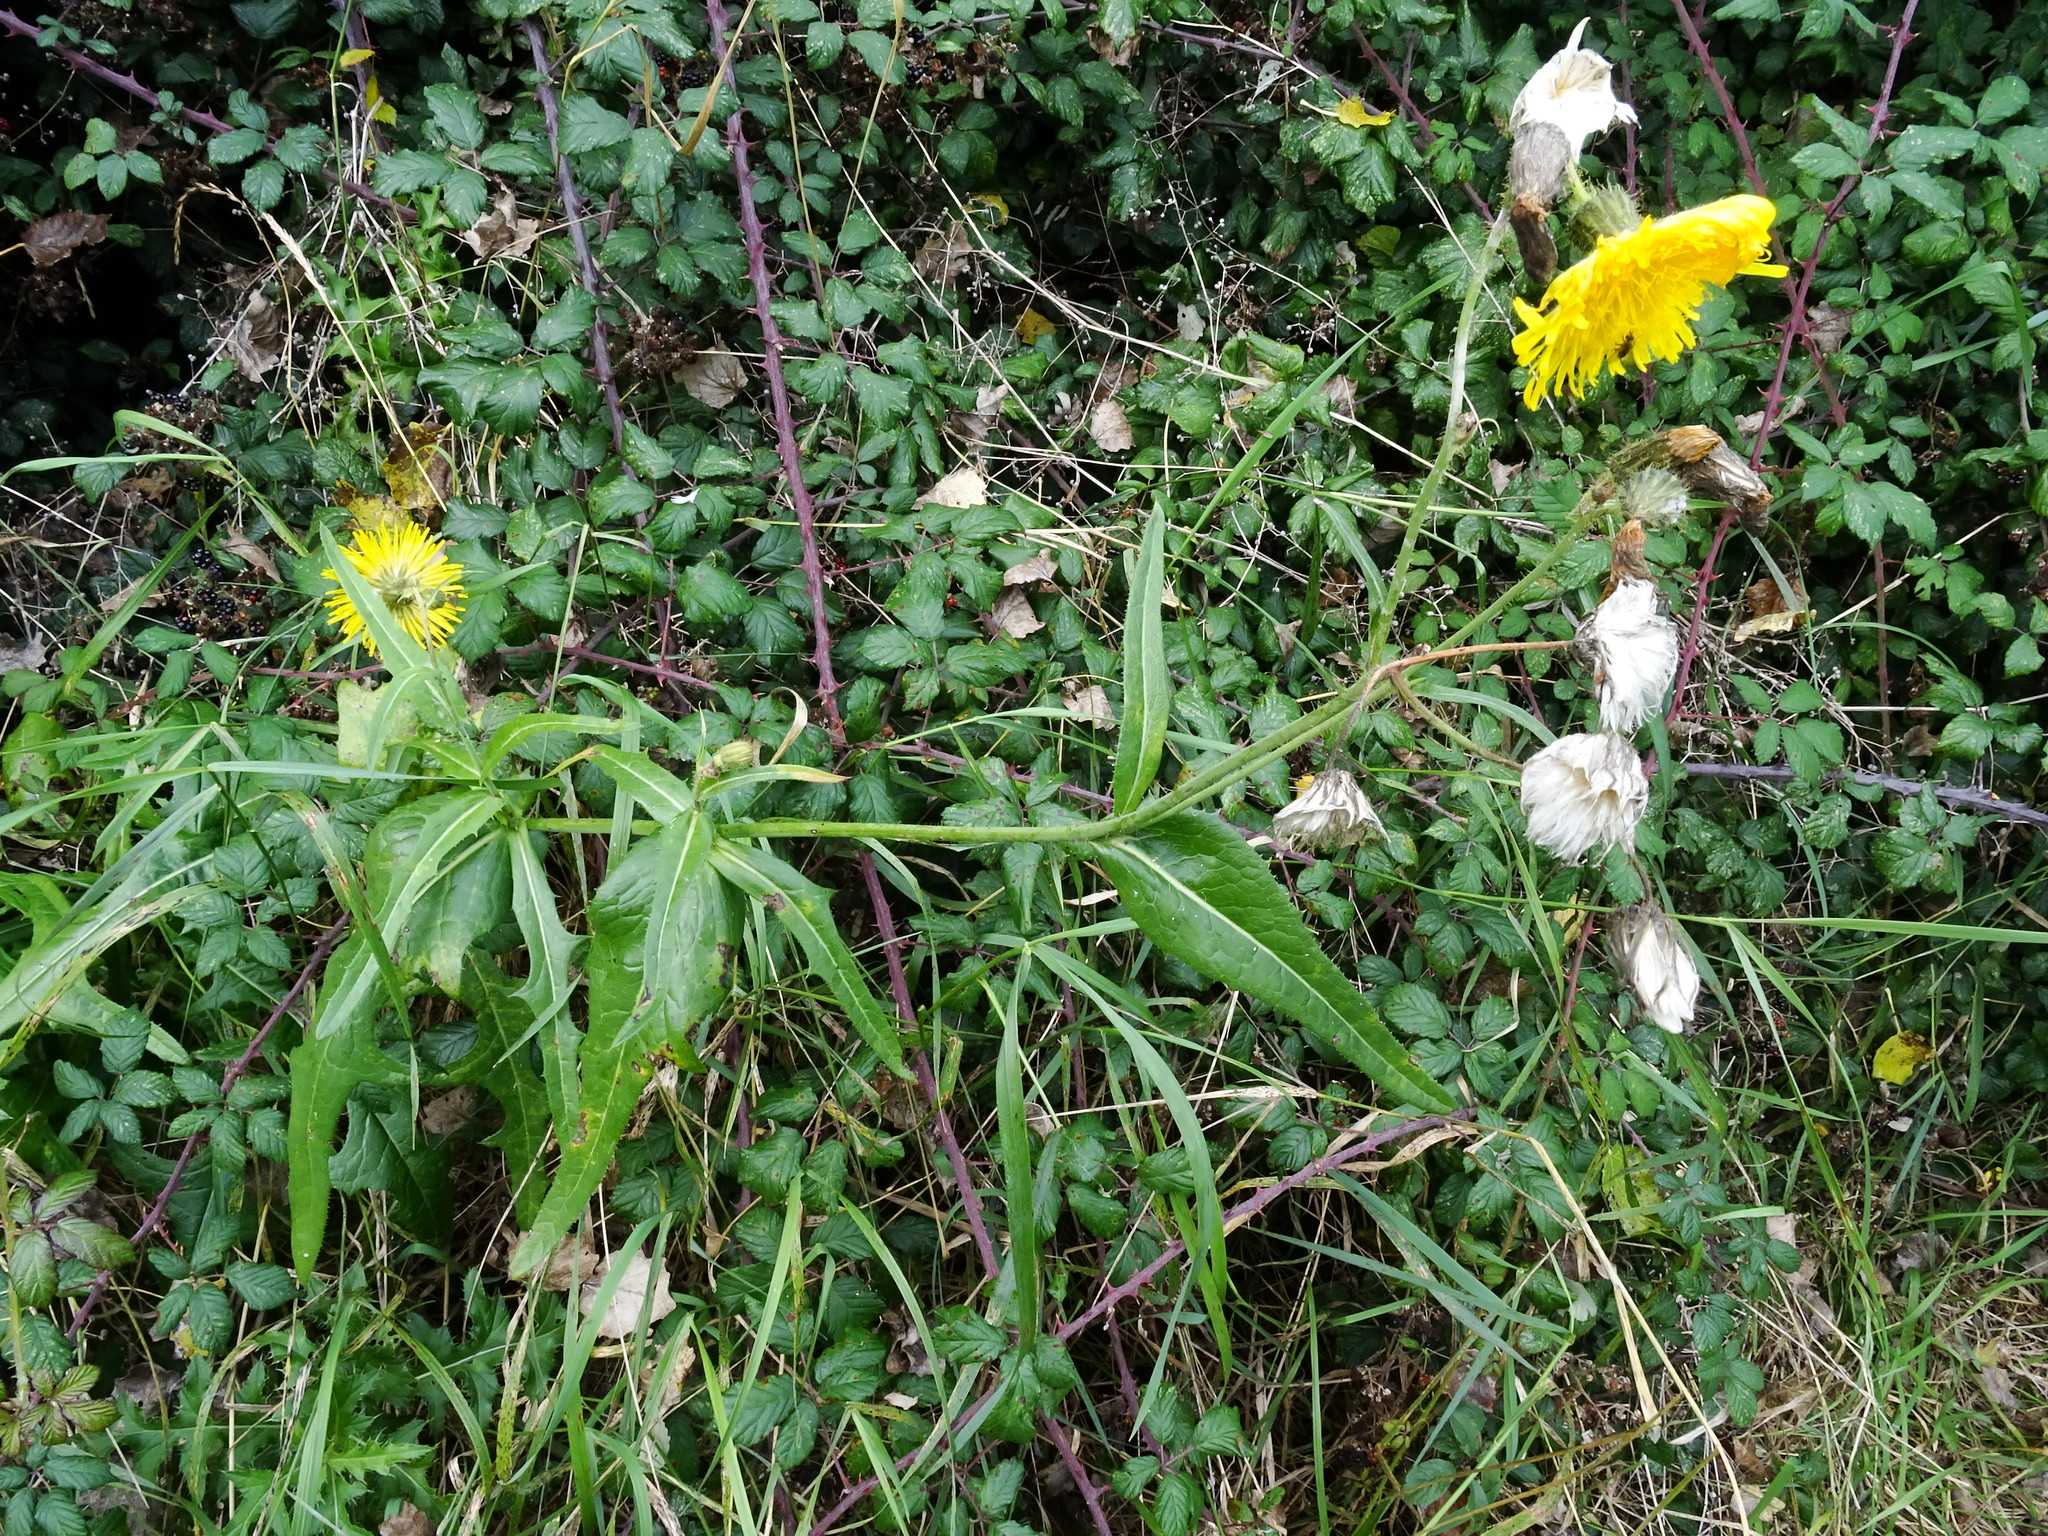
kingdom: Plantae
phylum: Tracheophyta
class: Magnoliopsida
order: Asterales
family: Asteraceae
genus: Sonchus
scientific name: Sonchus arvensis
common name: Perennial sow-thistle
